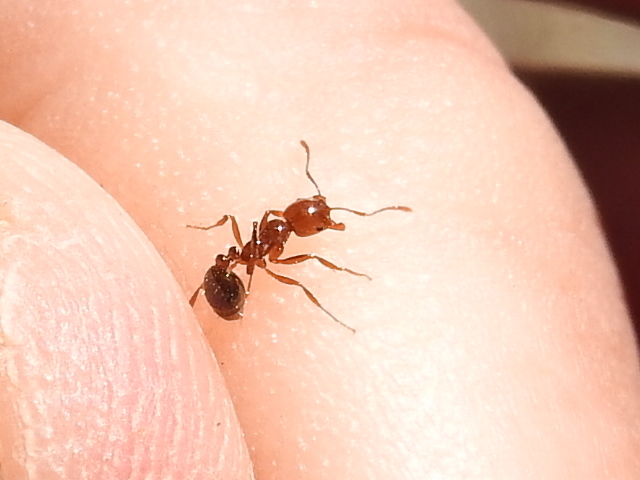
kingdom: Animalia
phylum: Arthropoda
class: Insecta
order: Hymenoptera
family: Formicidae
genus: Solenopsis
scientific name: Solenopsis invicta
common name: Red imported fire ant
